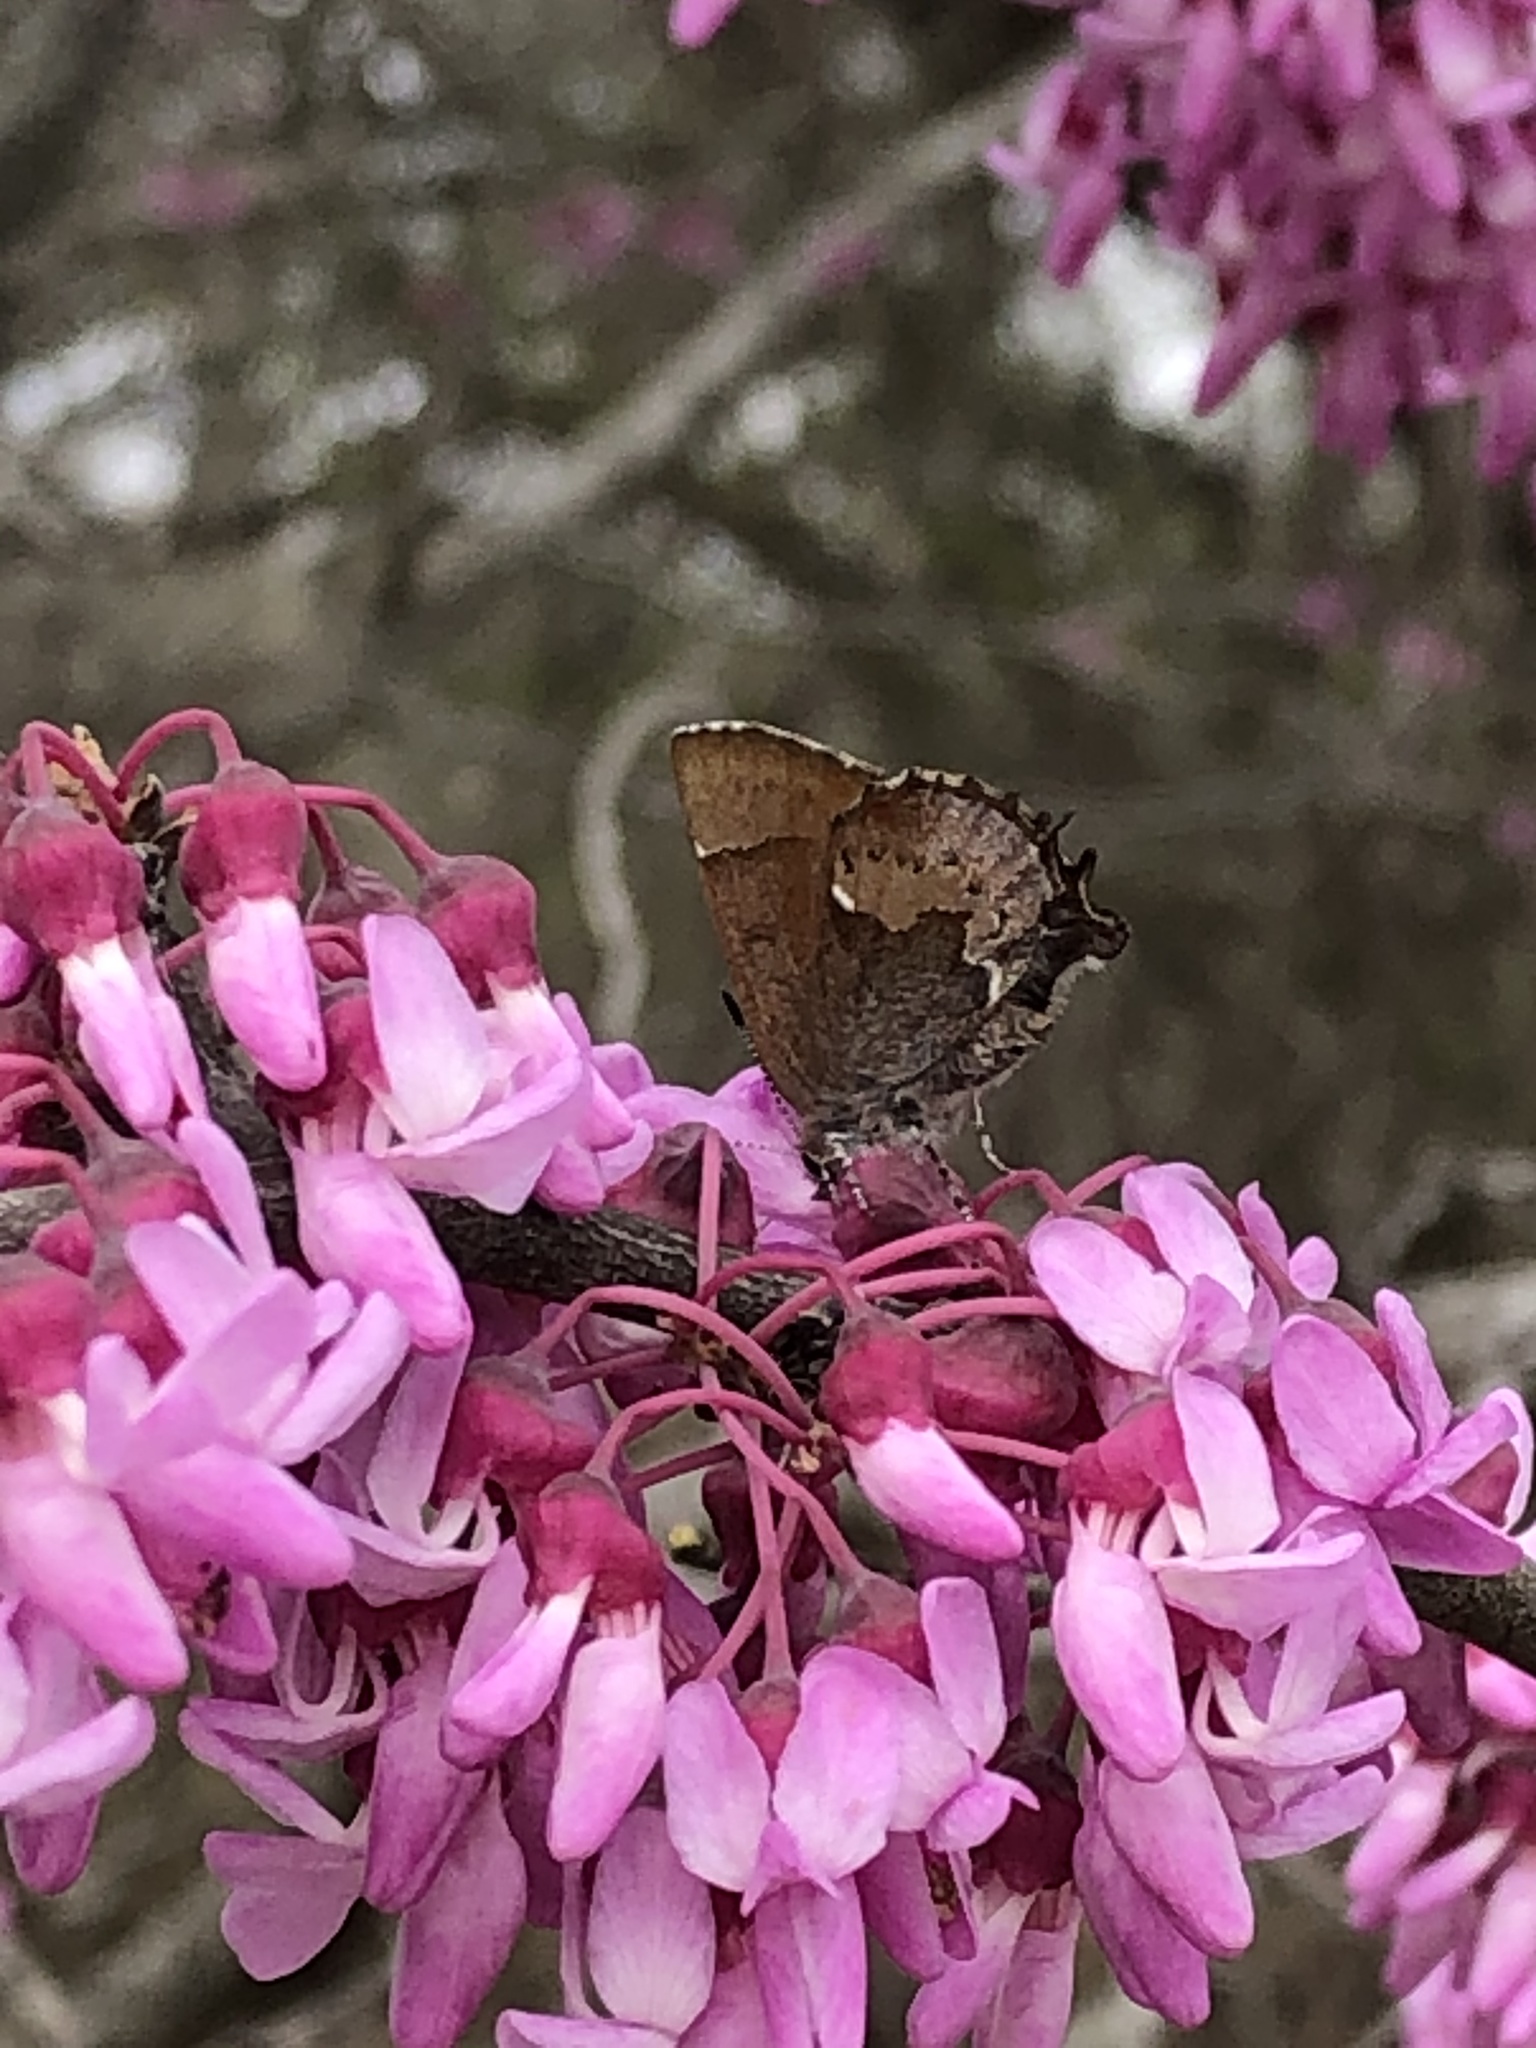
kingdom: Animalia
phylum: Arthropoda
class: Insecta
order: Lepidoptera
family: Lycaenidae
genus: Incisalia
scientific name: Incisalia henrici
